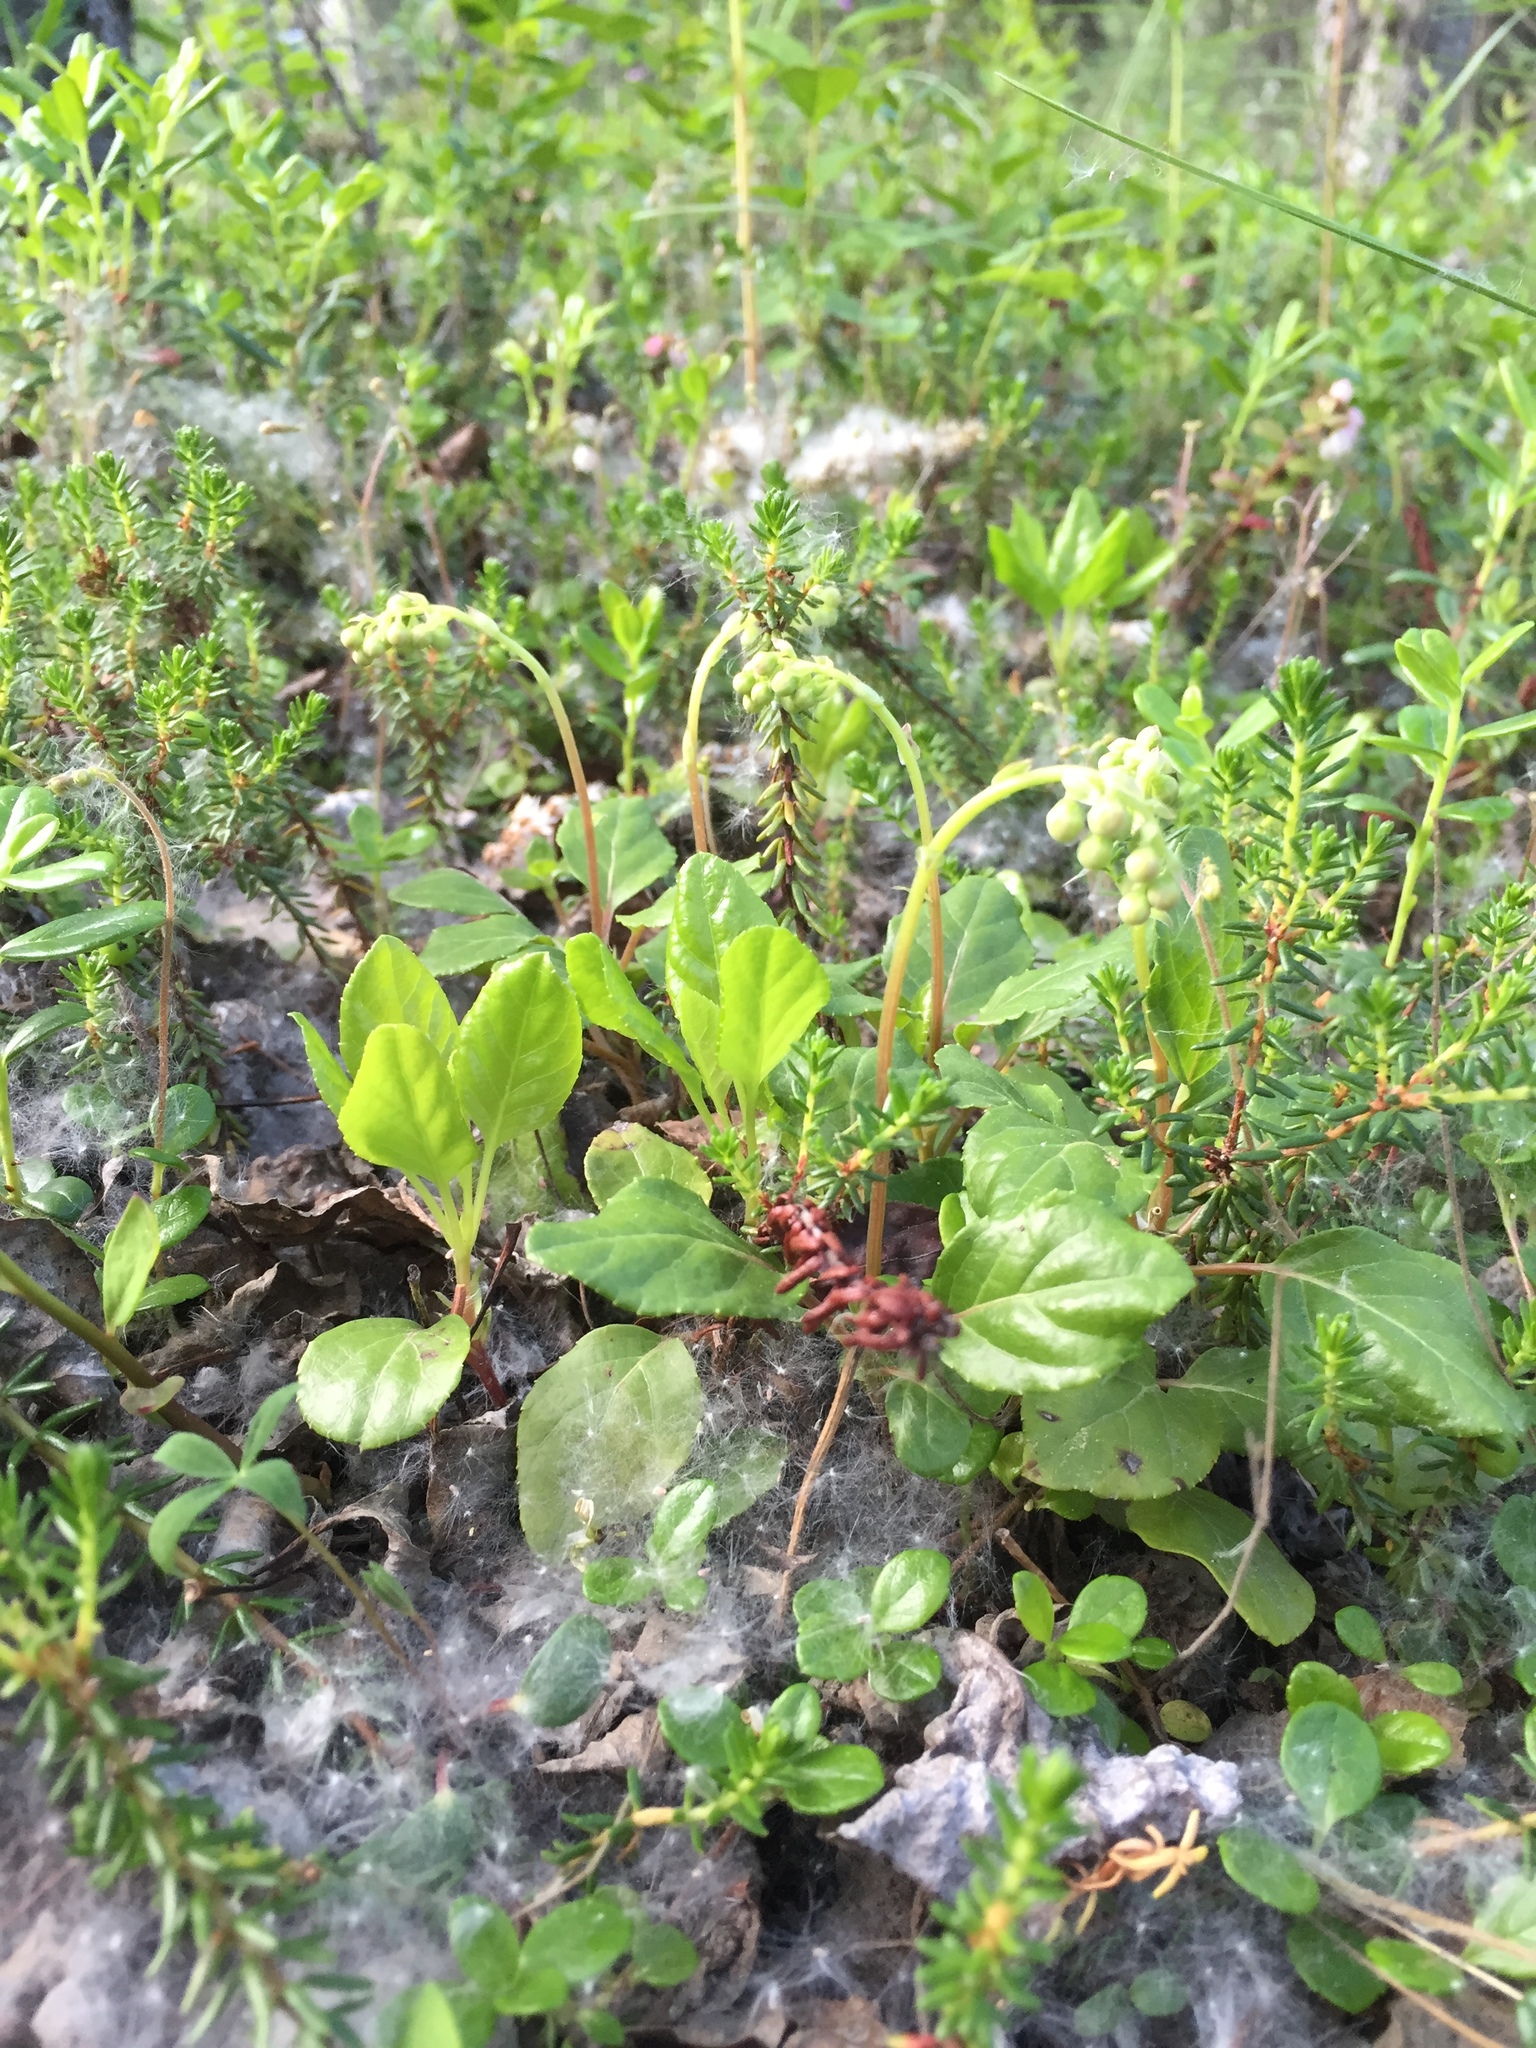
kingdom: Plantae
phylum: Tracheophyta
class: Magnoliopsida
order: Ericales
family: Ericaceae
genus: Orthilia
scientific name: Orthilia secunda
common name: One-sided orthilia
